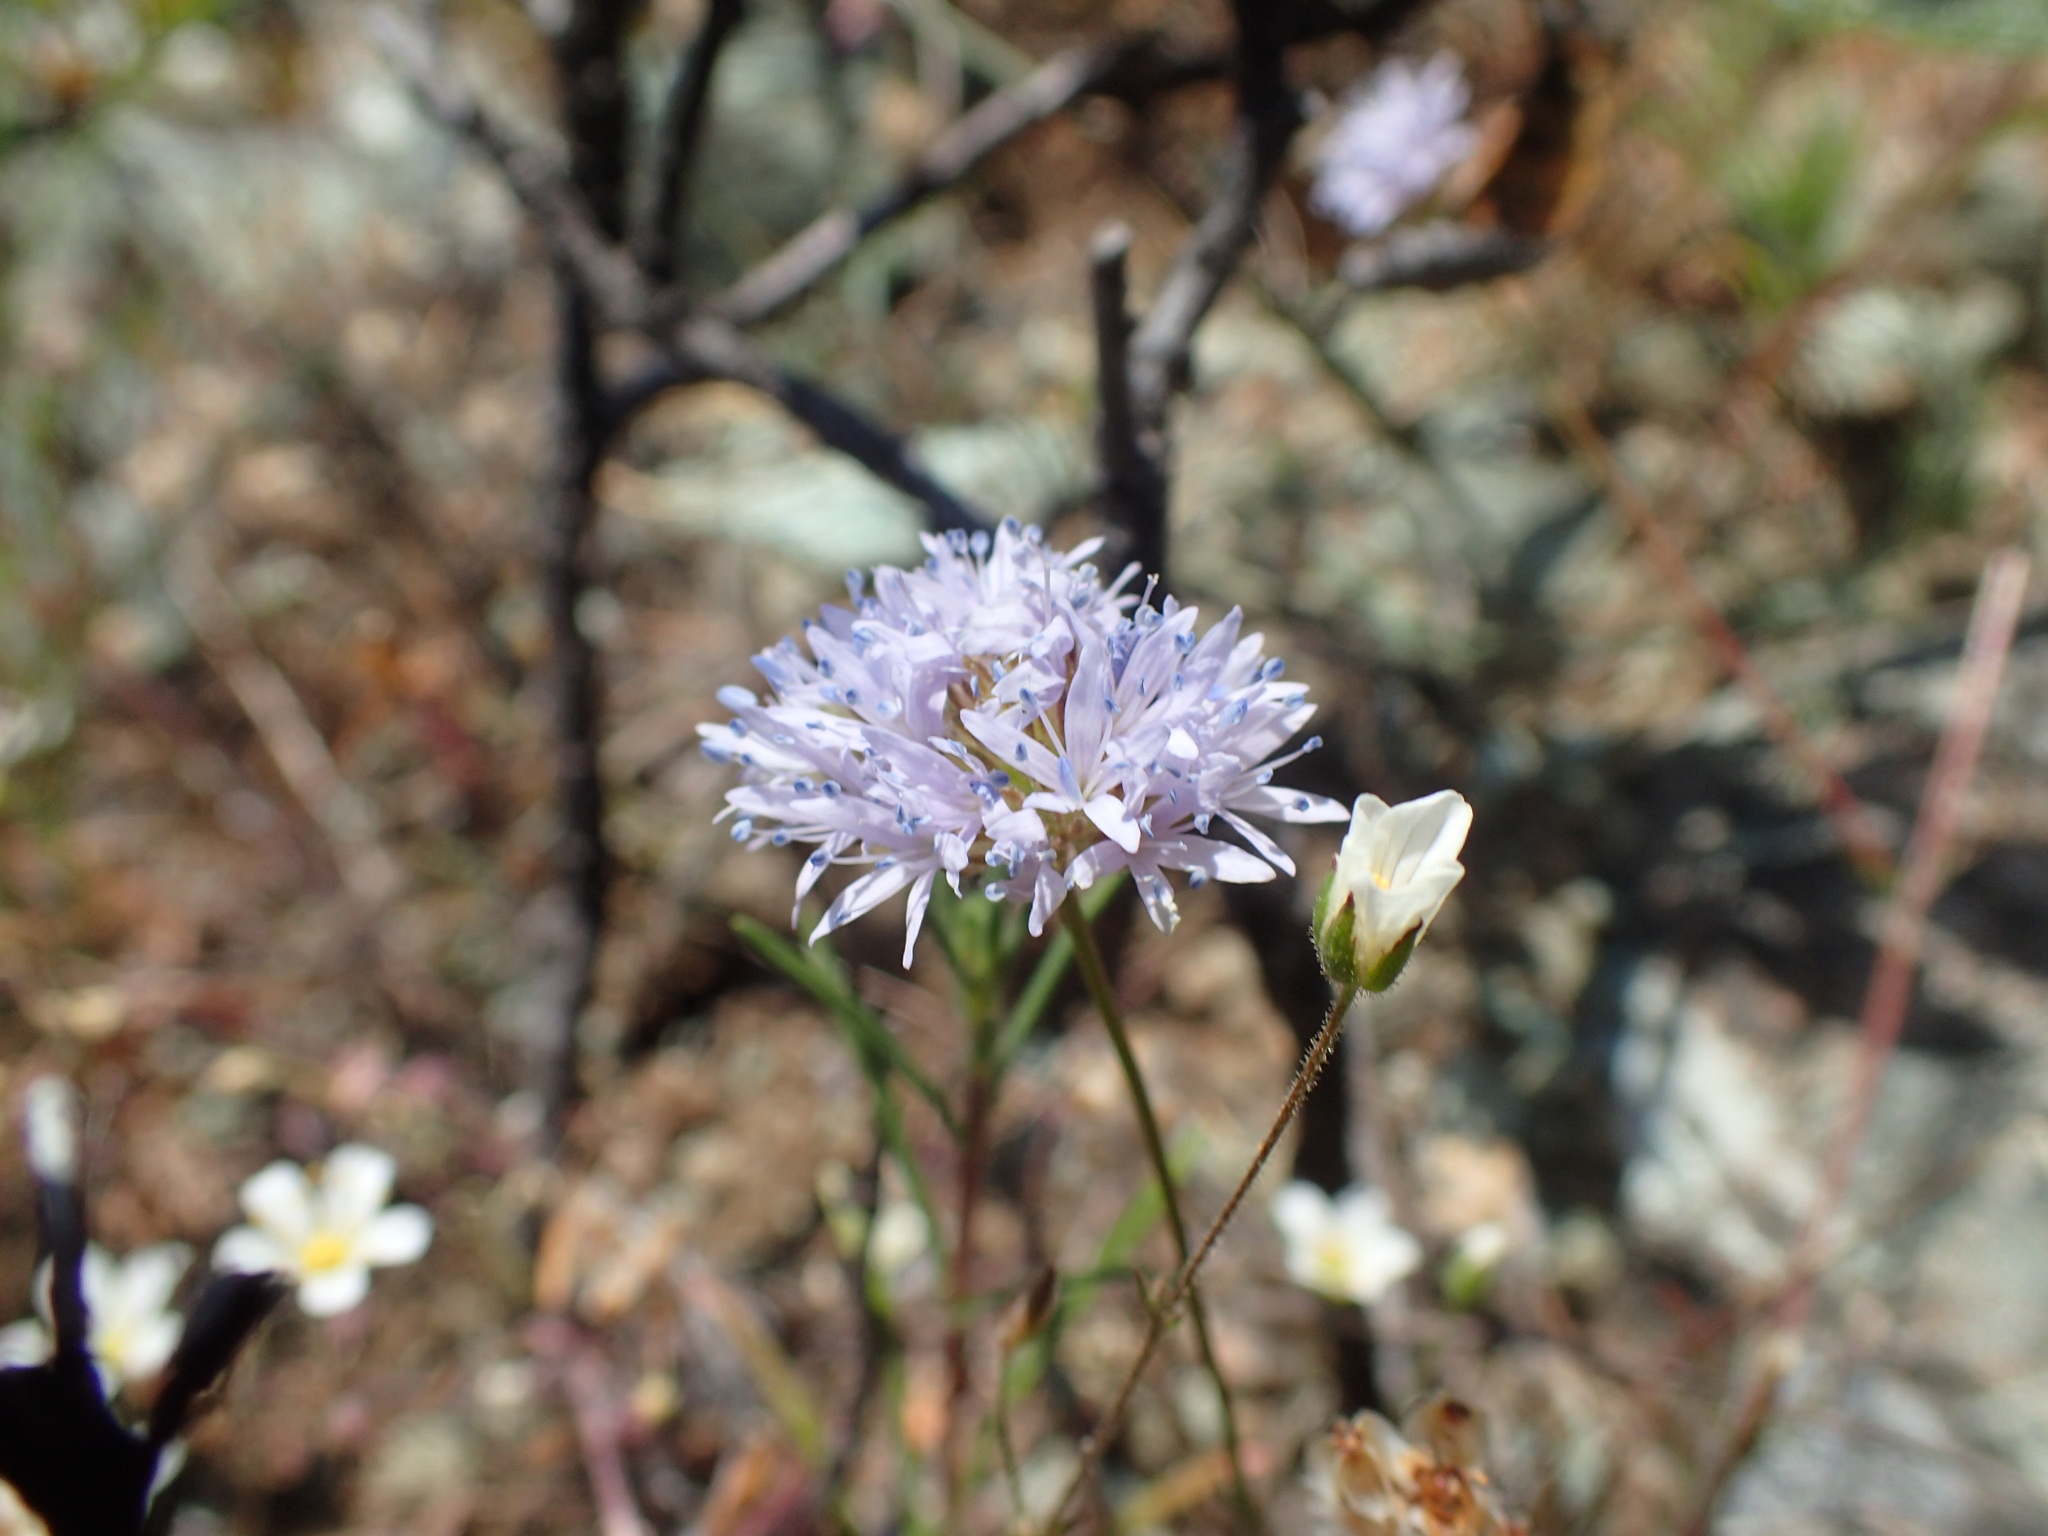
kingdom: Plantae
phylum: Tracheophyta
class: Magnoliopsida
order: Ericales
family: Polemoniaceae
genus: Gilia
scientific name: Gilia capitata
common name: Bluehead gilia
